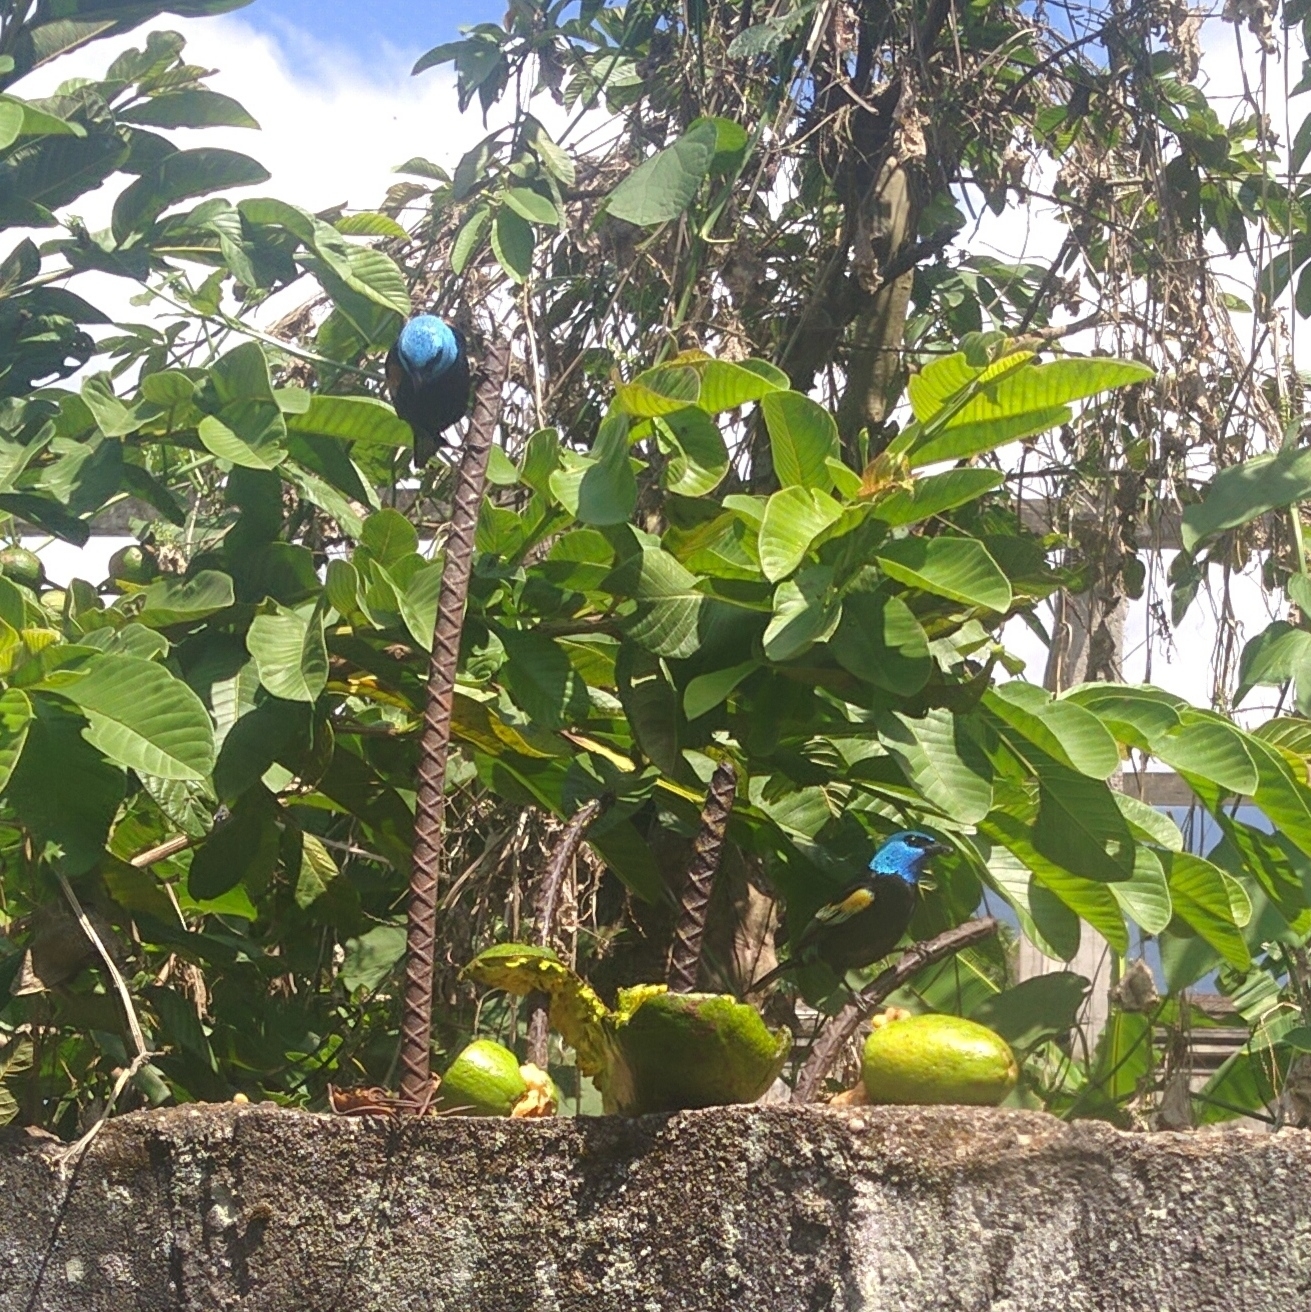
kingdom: Animalia
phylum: Chordata
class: Aves
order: Passeriformes
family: Thraupidae
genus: Stilpnia
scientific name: Stilpnia cyanicollis
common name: Blue-necked tanager
